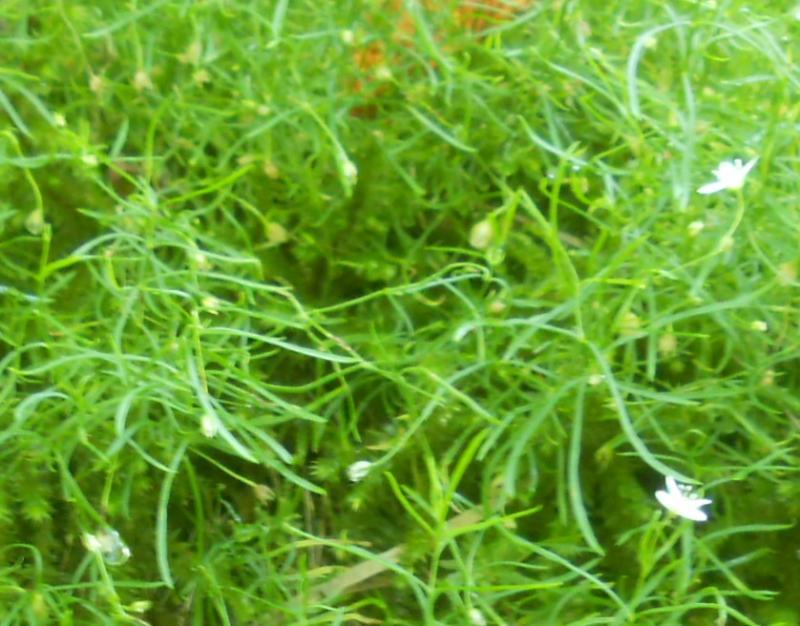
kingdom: Plantae
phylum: Tracheophyta
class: Magnoliopsida
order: Caryophyllales
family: Caryophyllaceae
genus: Moehringia
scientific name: Moehringia muscosa
